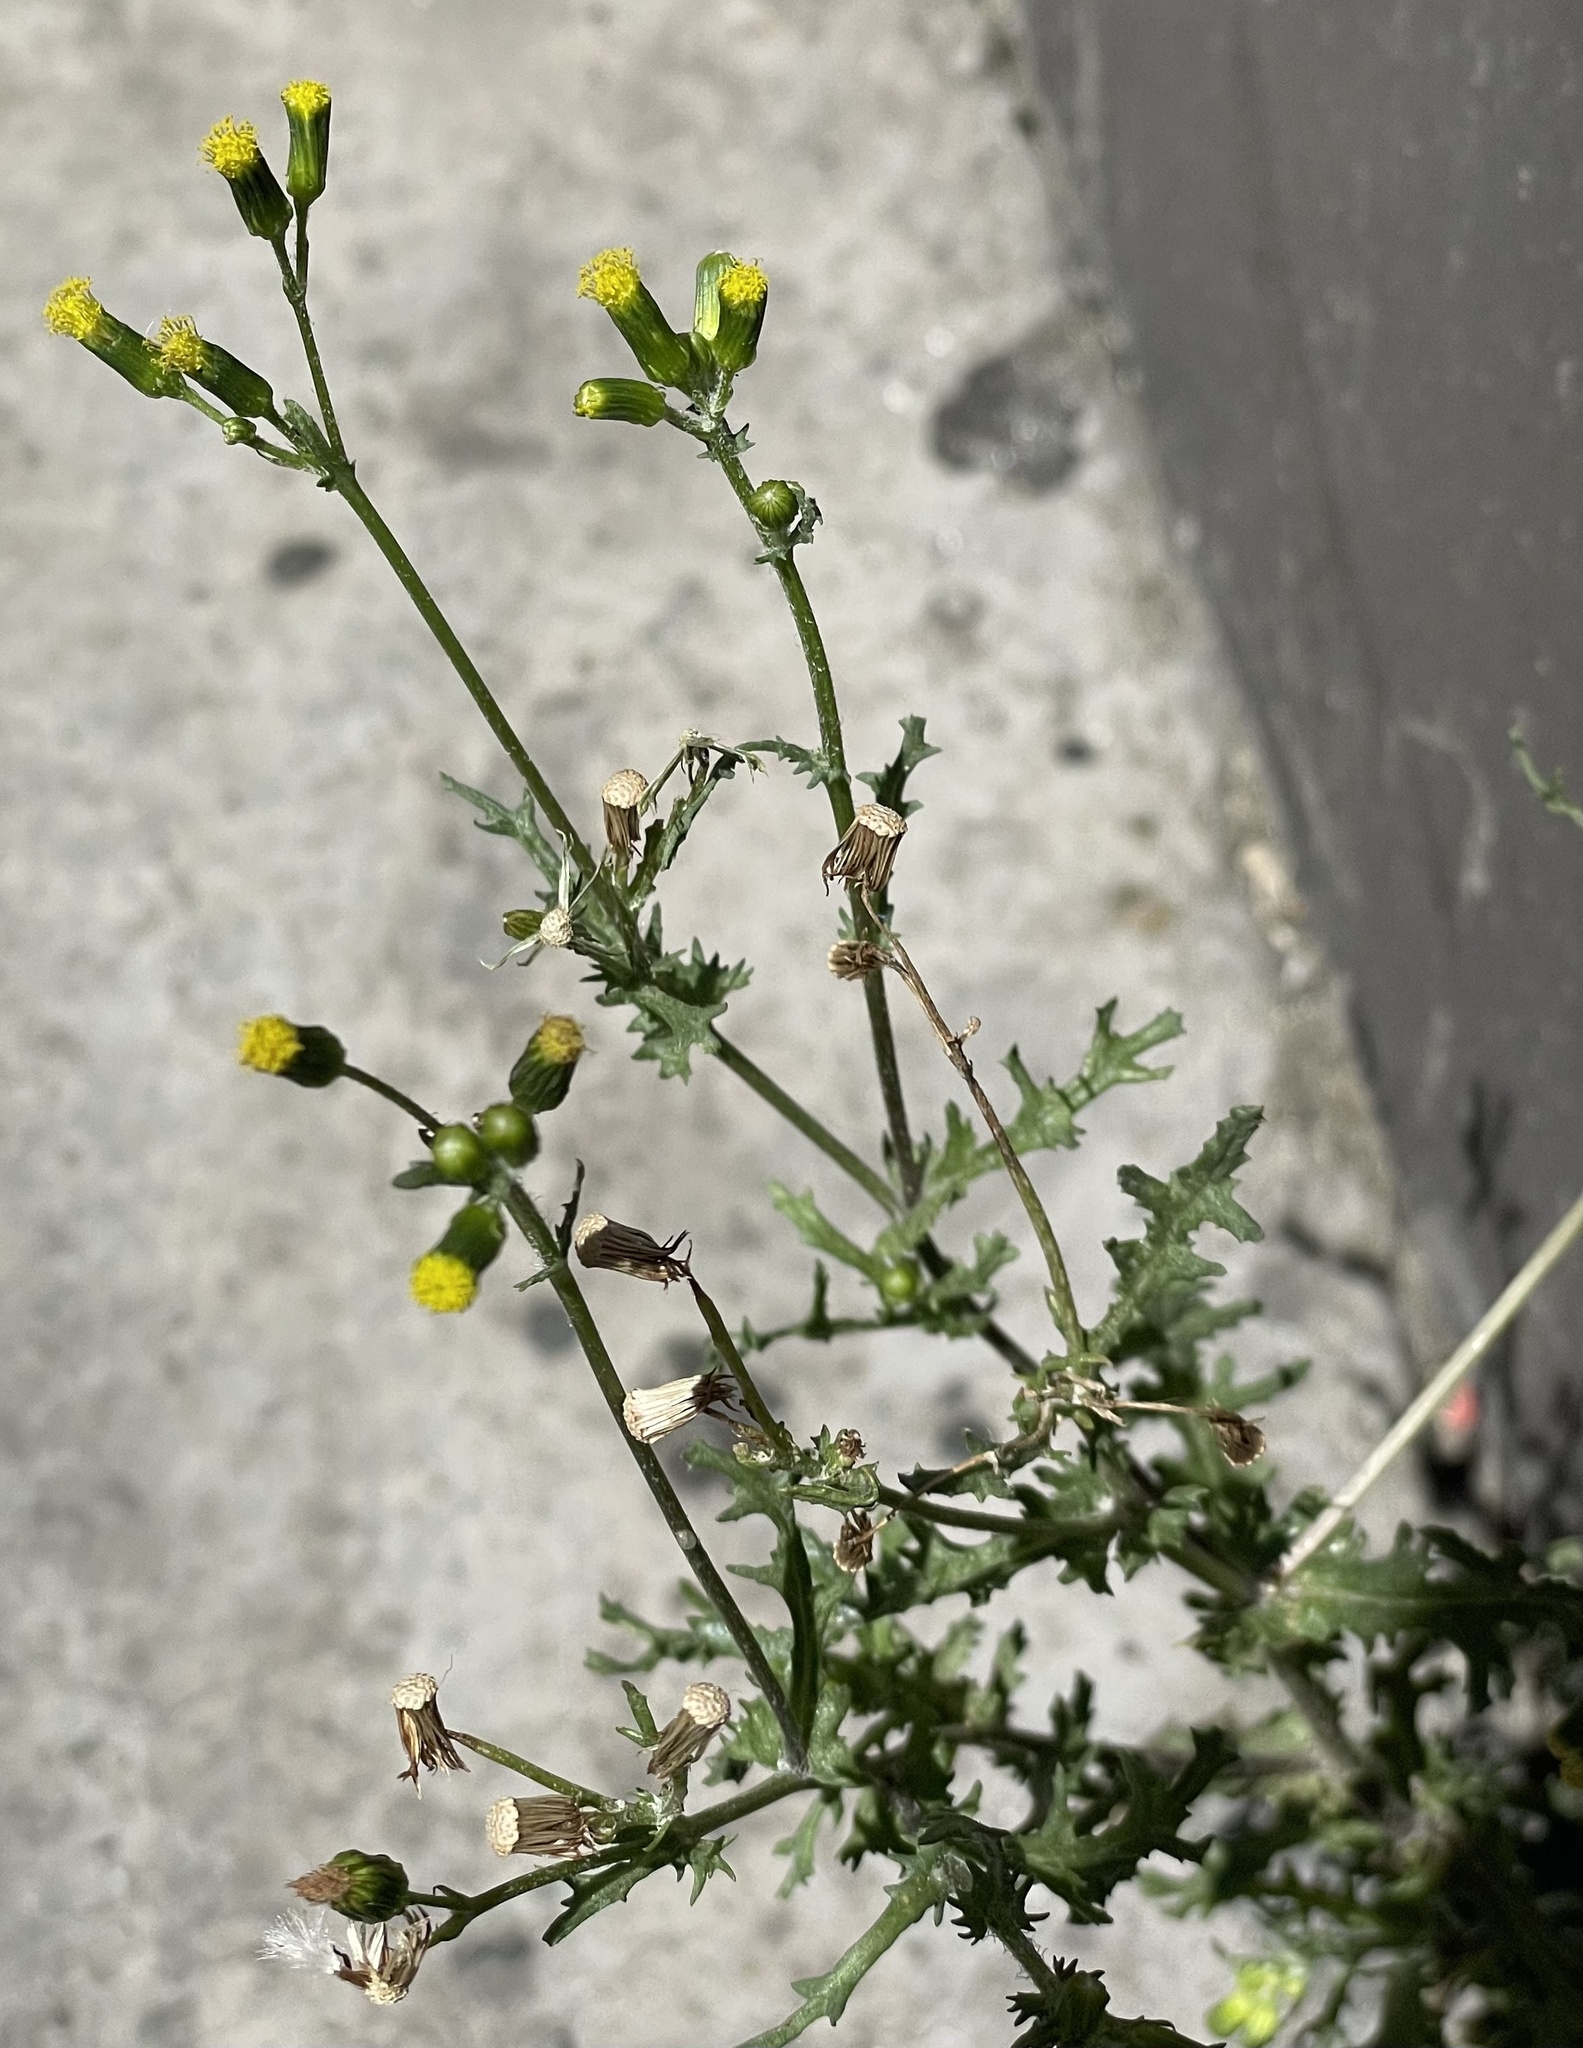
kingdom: Plantae
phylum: Tracheophyta
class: Magnoliopsida
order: Asterales
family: Asteraceae
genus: Senecio
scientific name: Senecio vulgaris
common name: Old-man-in-the-spring
